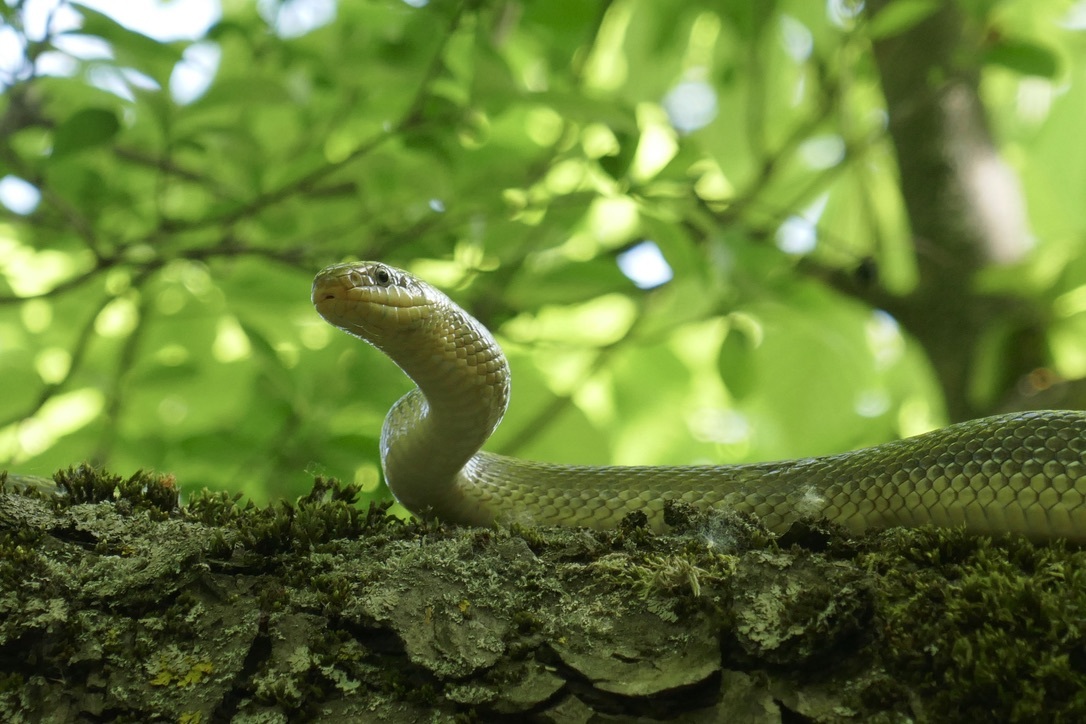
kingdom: Animalia
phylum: Chordata
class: Squamata
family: Colubridae
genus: Zamenis
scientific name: Zamenis longissimus
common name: Aesculapean snake
